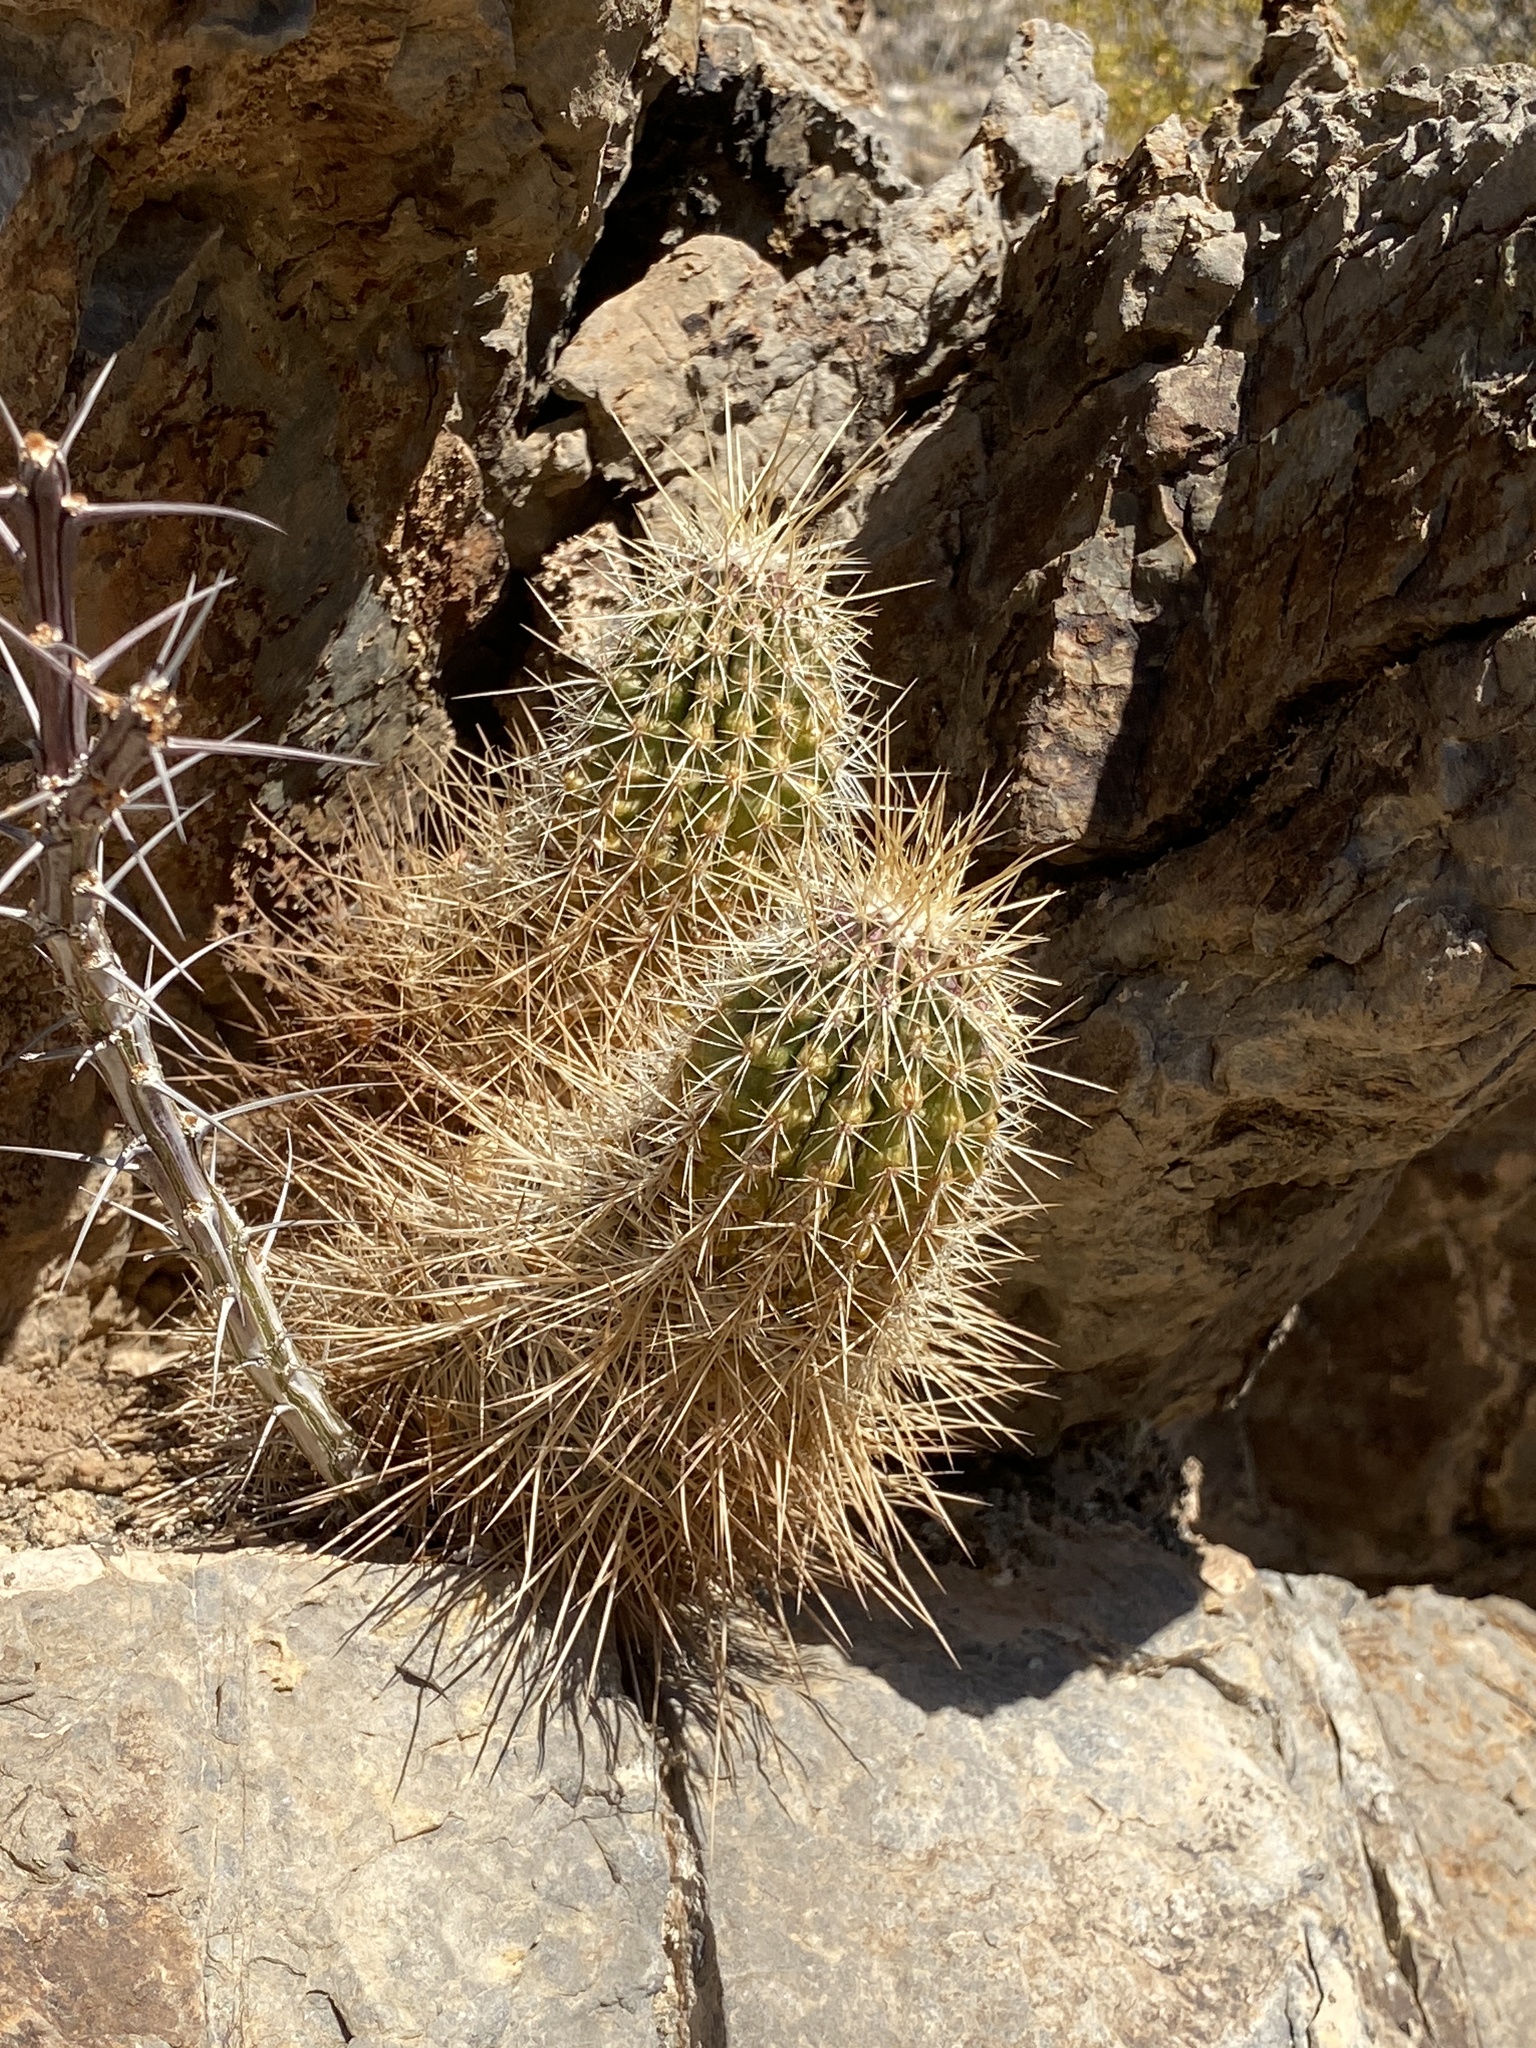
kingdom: Plantae
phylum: Tracheophyta
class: Magnoliopsida
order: Caryophyllales
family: Cactaceae
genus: Echinocereus
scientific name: Echinocereus stramineus
